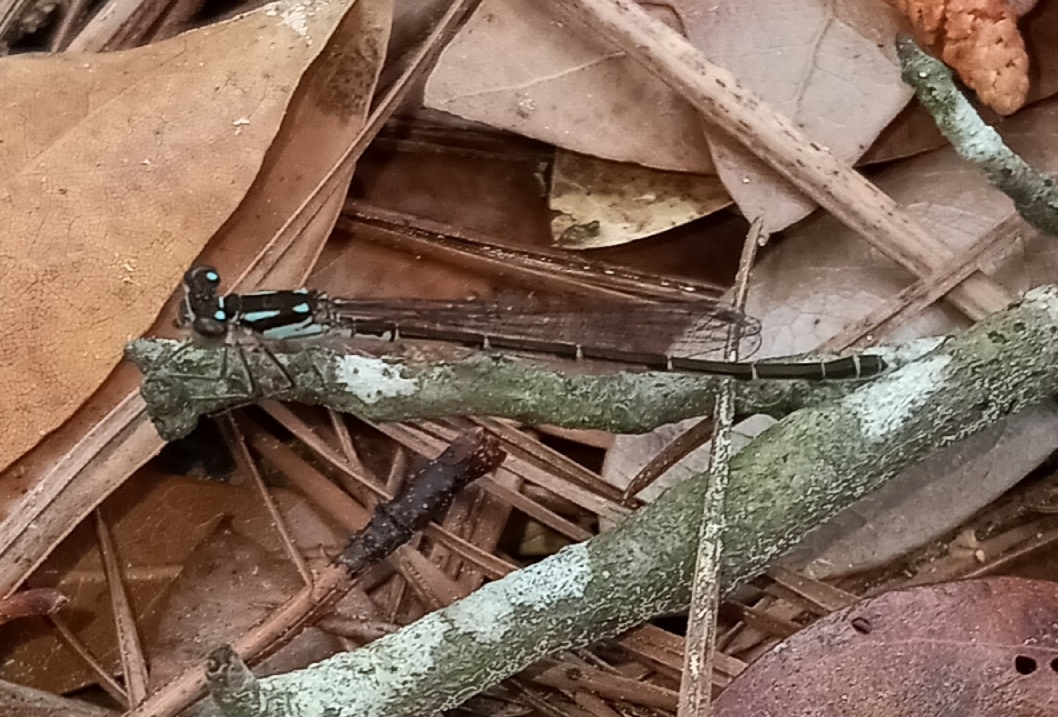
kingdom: Animalia
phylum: Arthropoda
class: Insecta
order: Odonata
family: Coenagrionidae
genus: Ischnura
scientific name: Ischnura posita
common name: Fragile forktail
